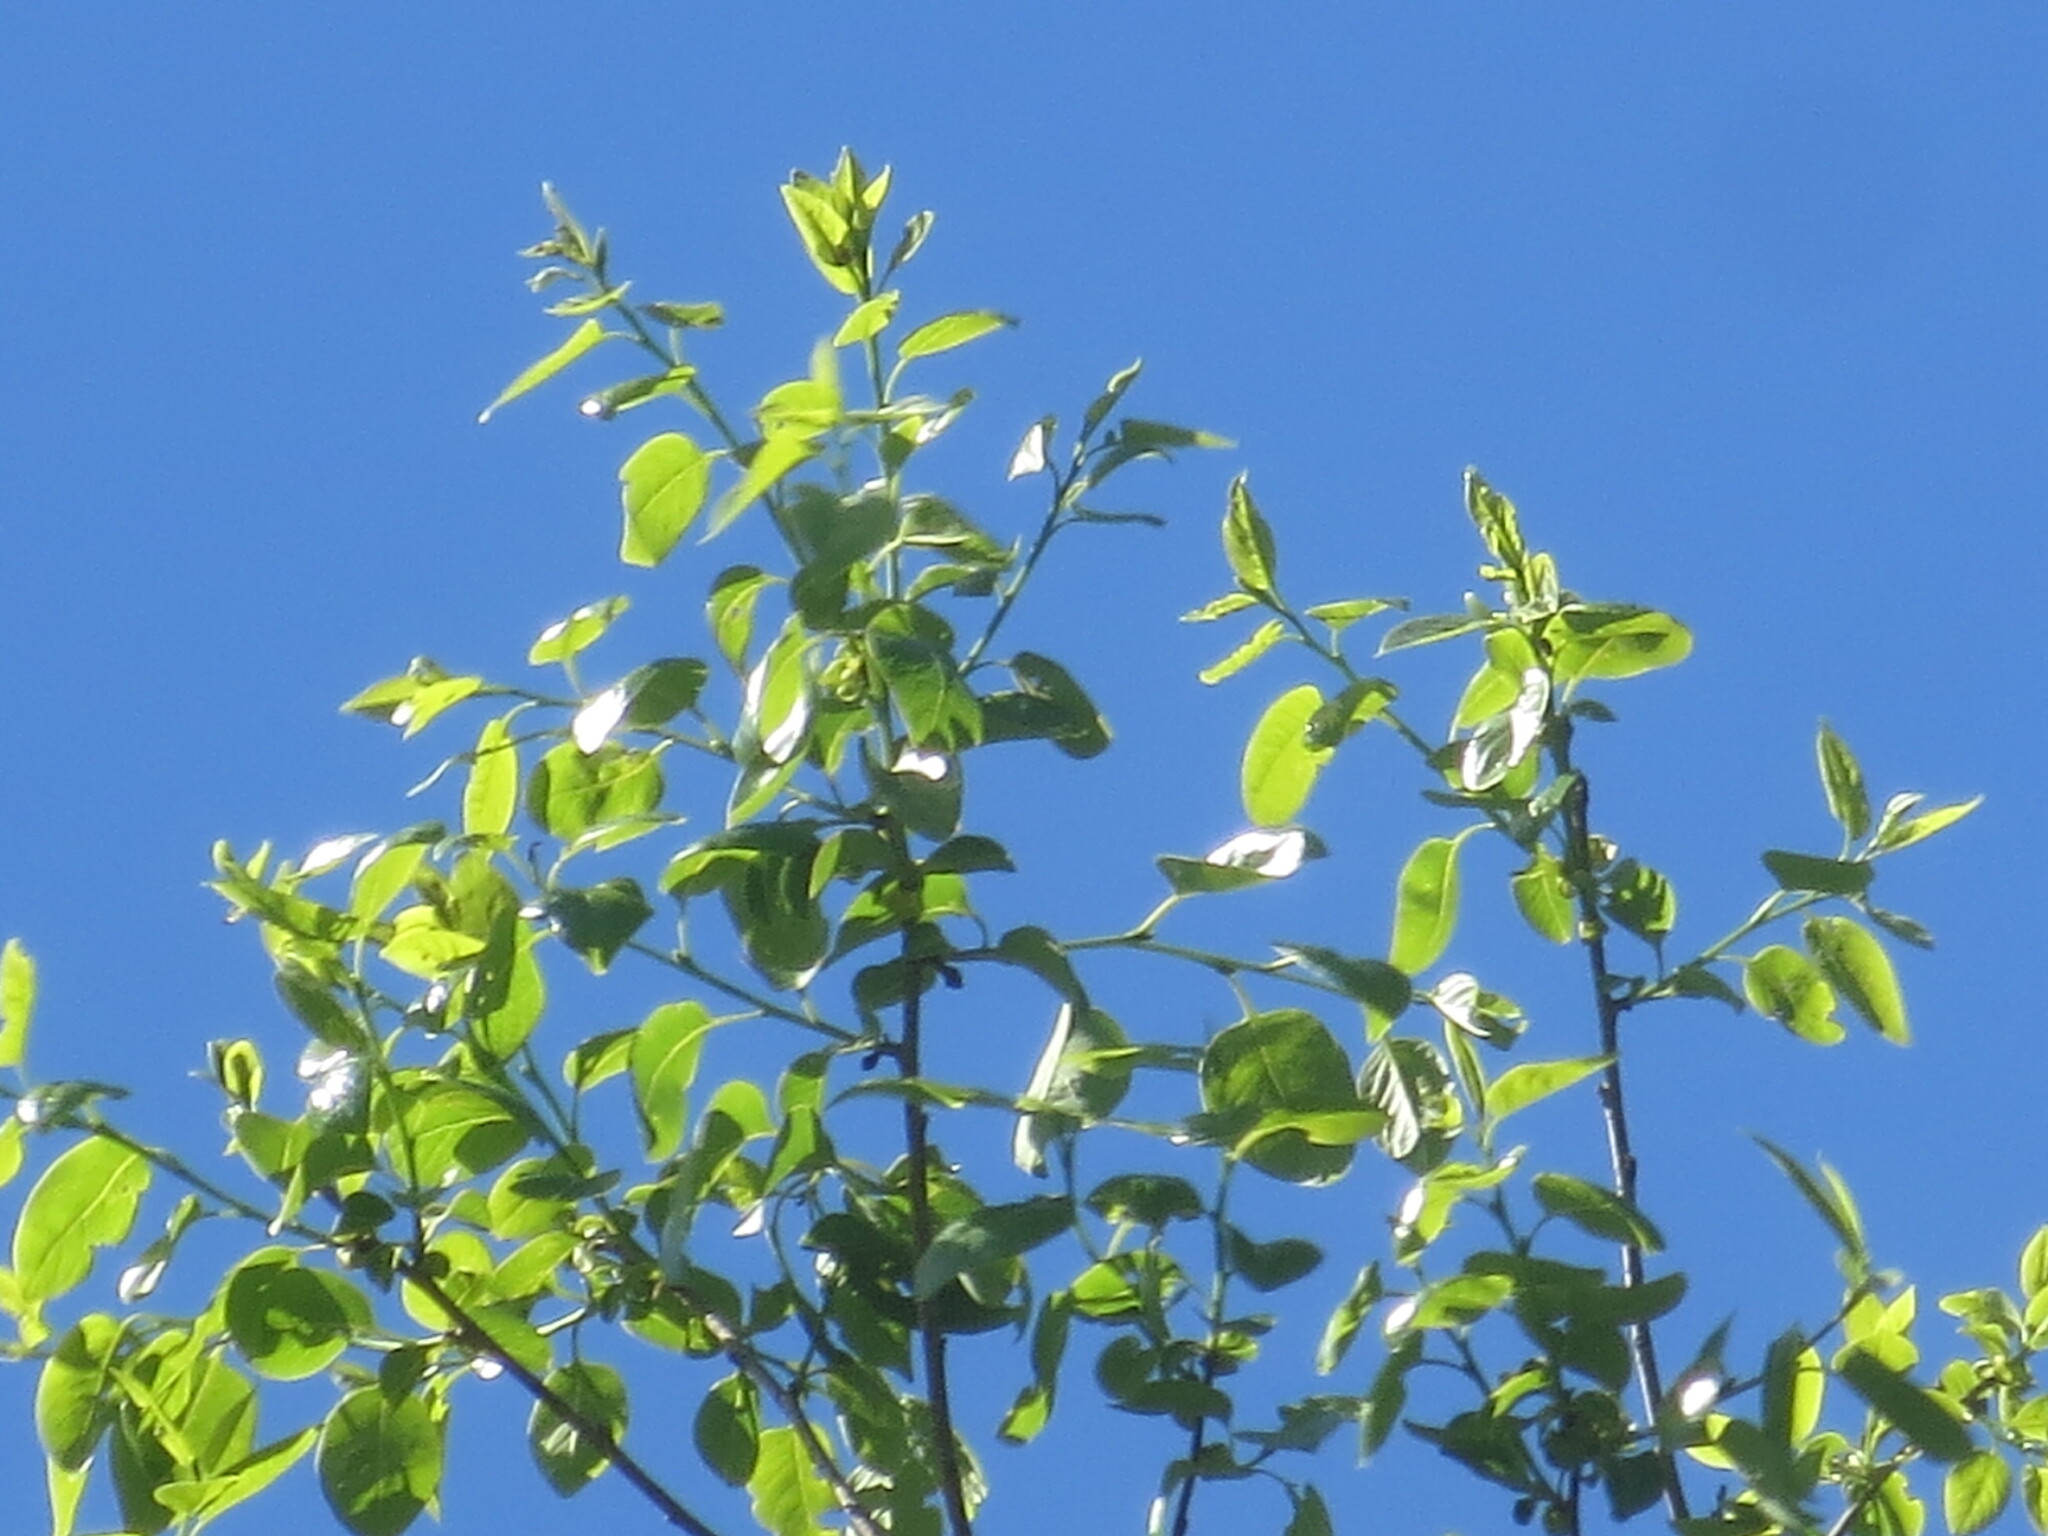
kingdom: Plantae
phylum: Tracheophyta
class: Magnoliopsida
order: Ericales
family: Ebenaceae
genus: Diospyros
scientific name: Diospyros virginiana
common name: Persimmon
